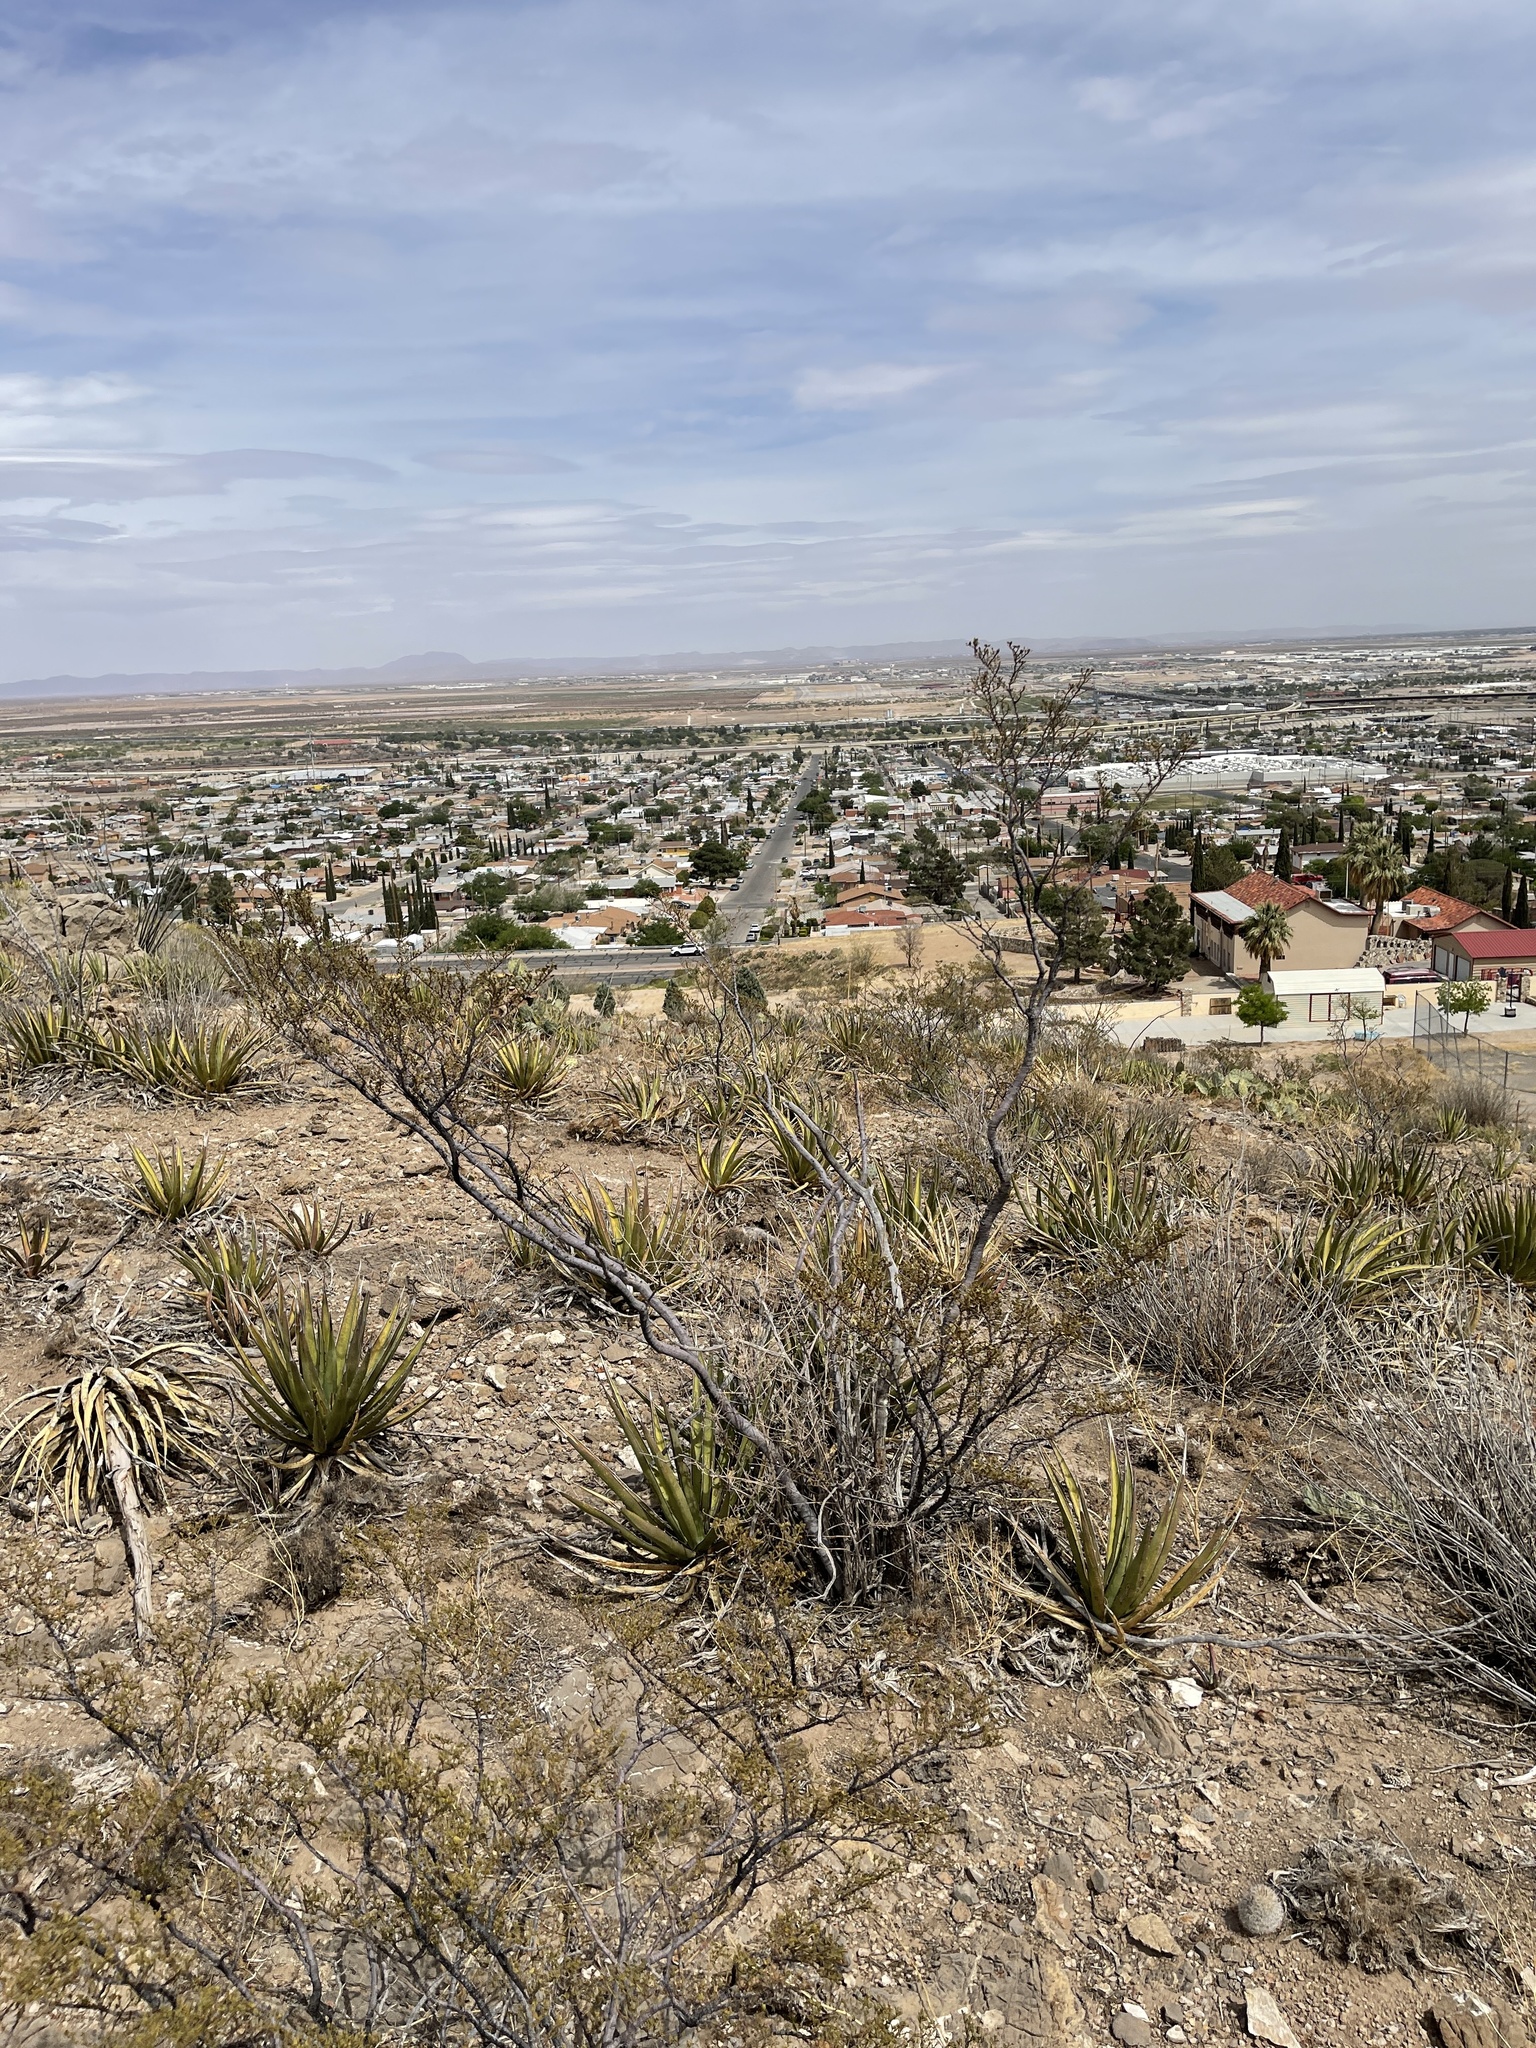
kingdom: Plantae
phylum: Tracheophyta
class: Magnoliopsida
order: Ericales
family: Fouquieriaceae
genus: Fouquieria
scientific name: Fouquieria splendens
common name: Vine-cactus
